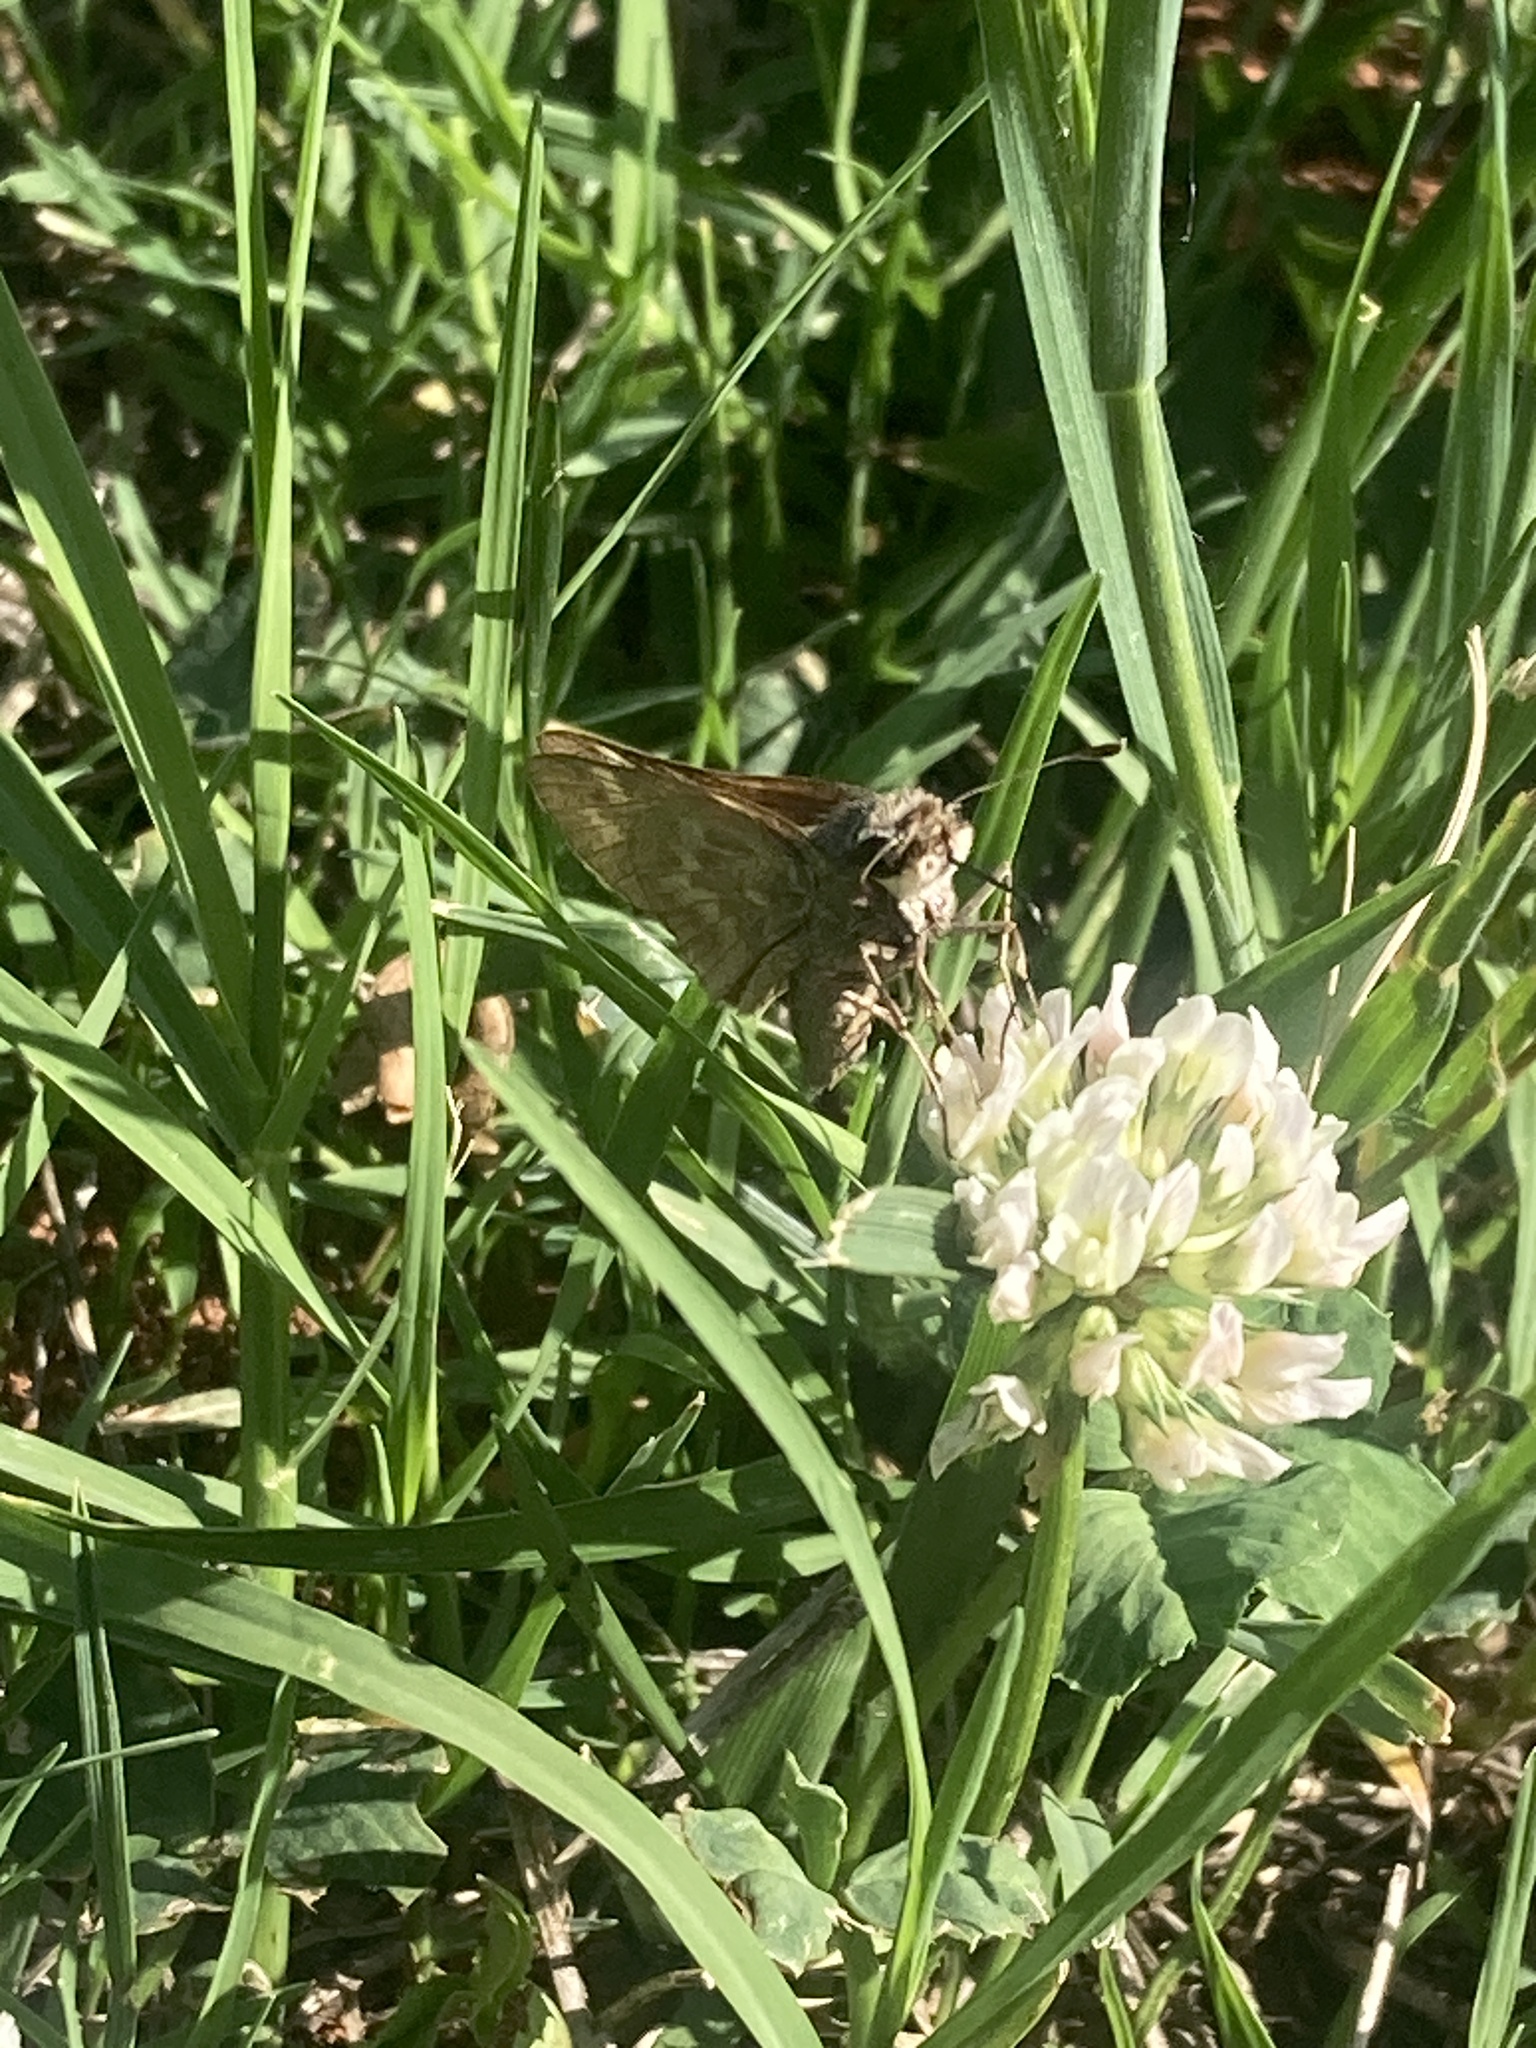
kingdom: Animalia
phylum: Arthropoda
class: Insecta
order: Lepidoptera
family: Hesperiidae
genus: Atalopedes
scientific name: Atalopedes
